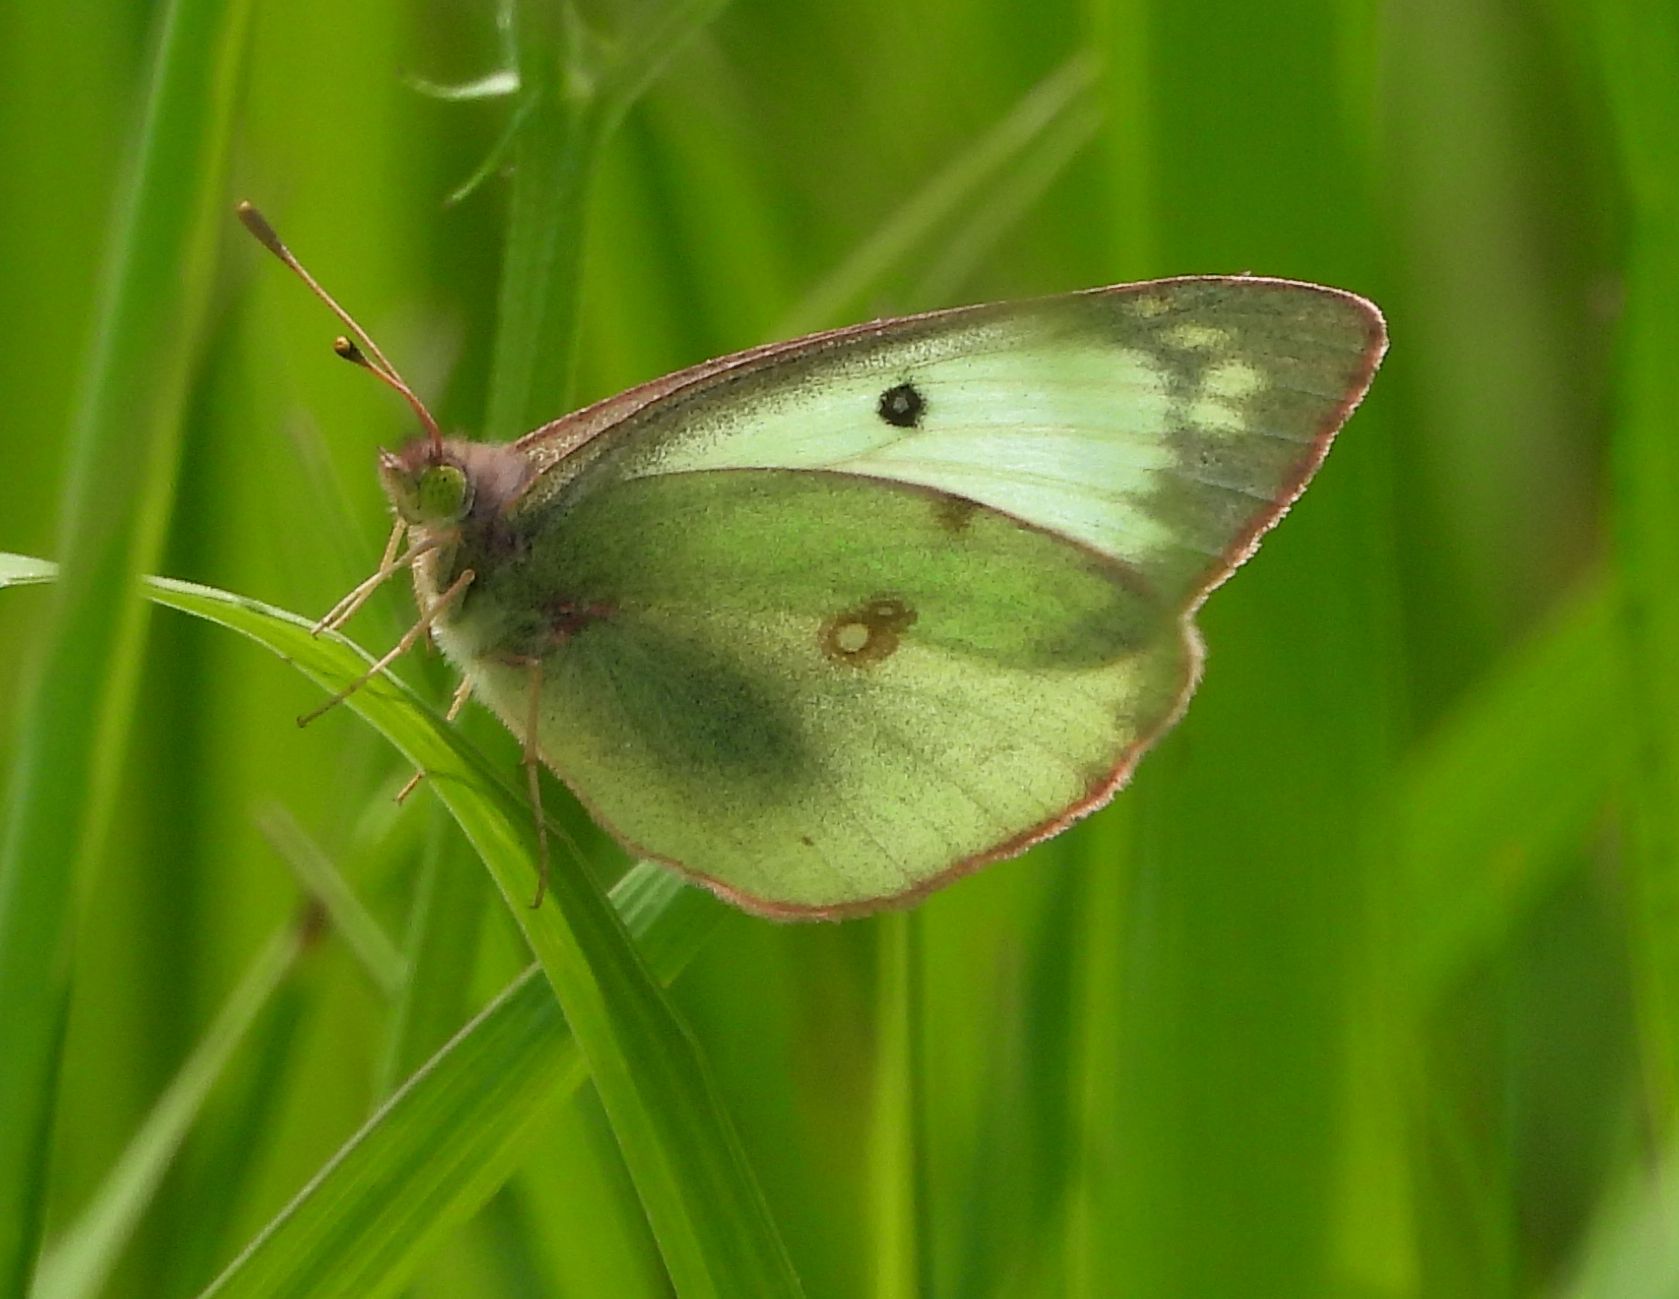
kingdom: Animalia
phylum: Arthropoda
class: Insecta
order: Lepidoptera
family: Pieridae
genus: Colias
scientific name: Colias philodice
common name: Clouded sulphur
